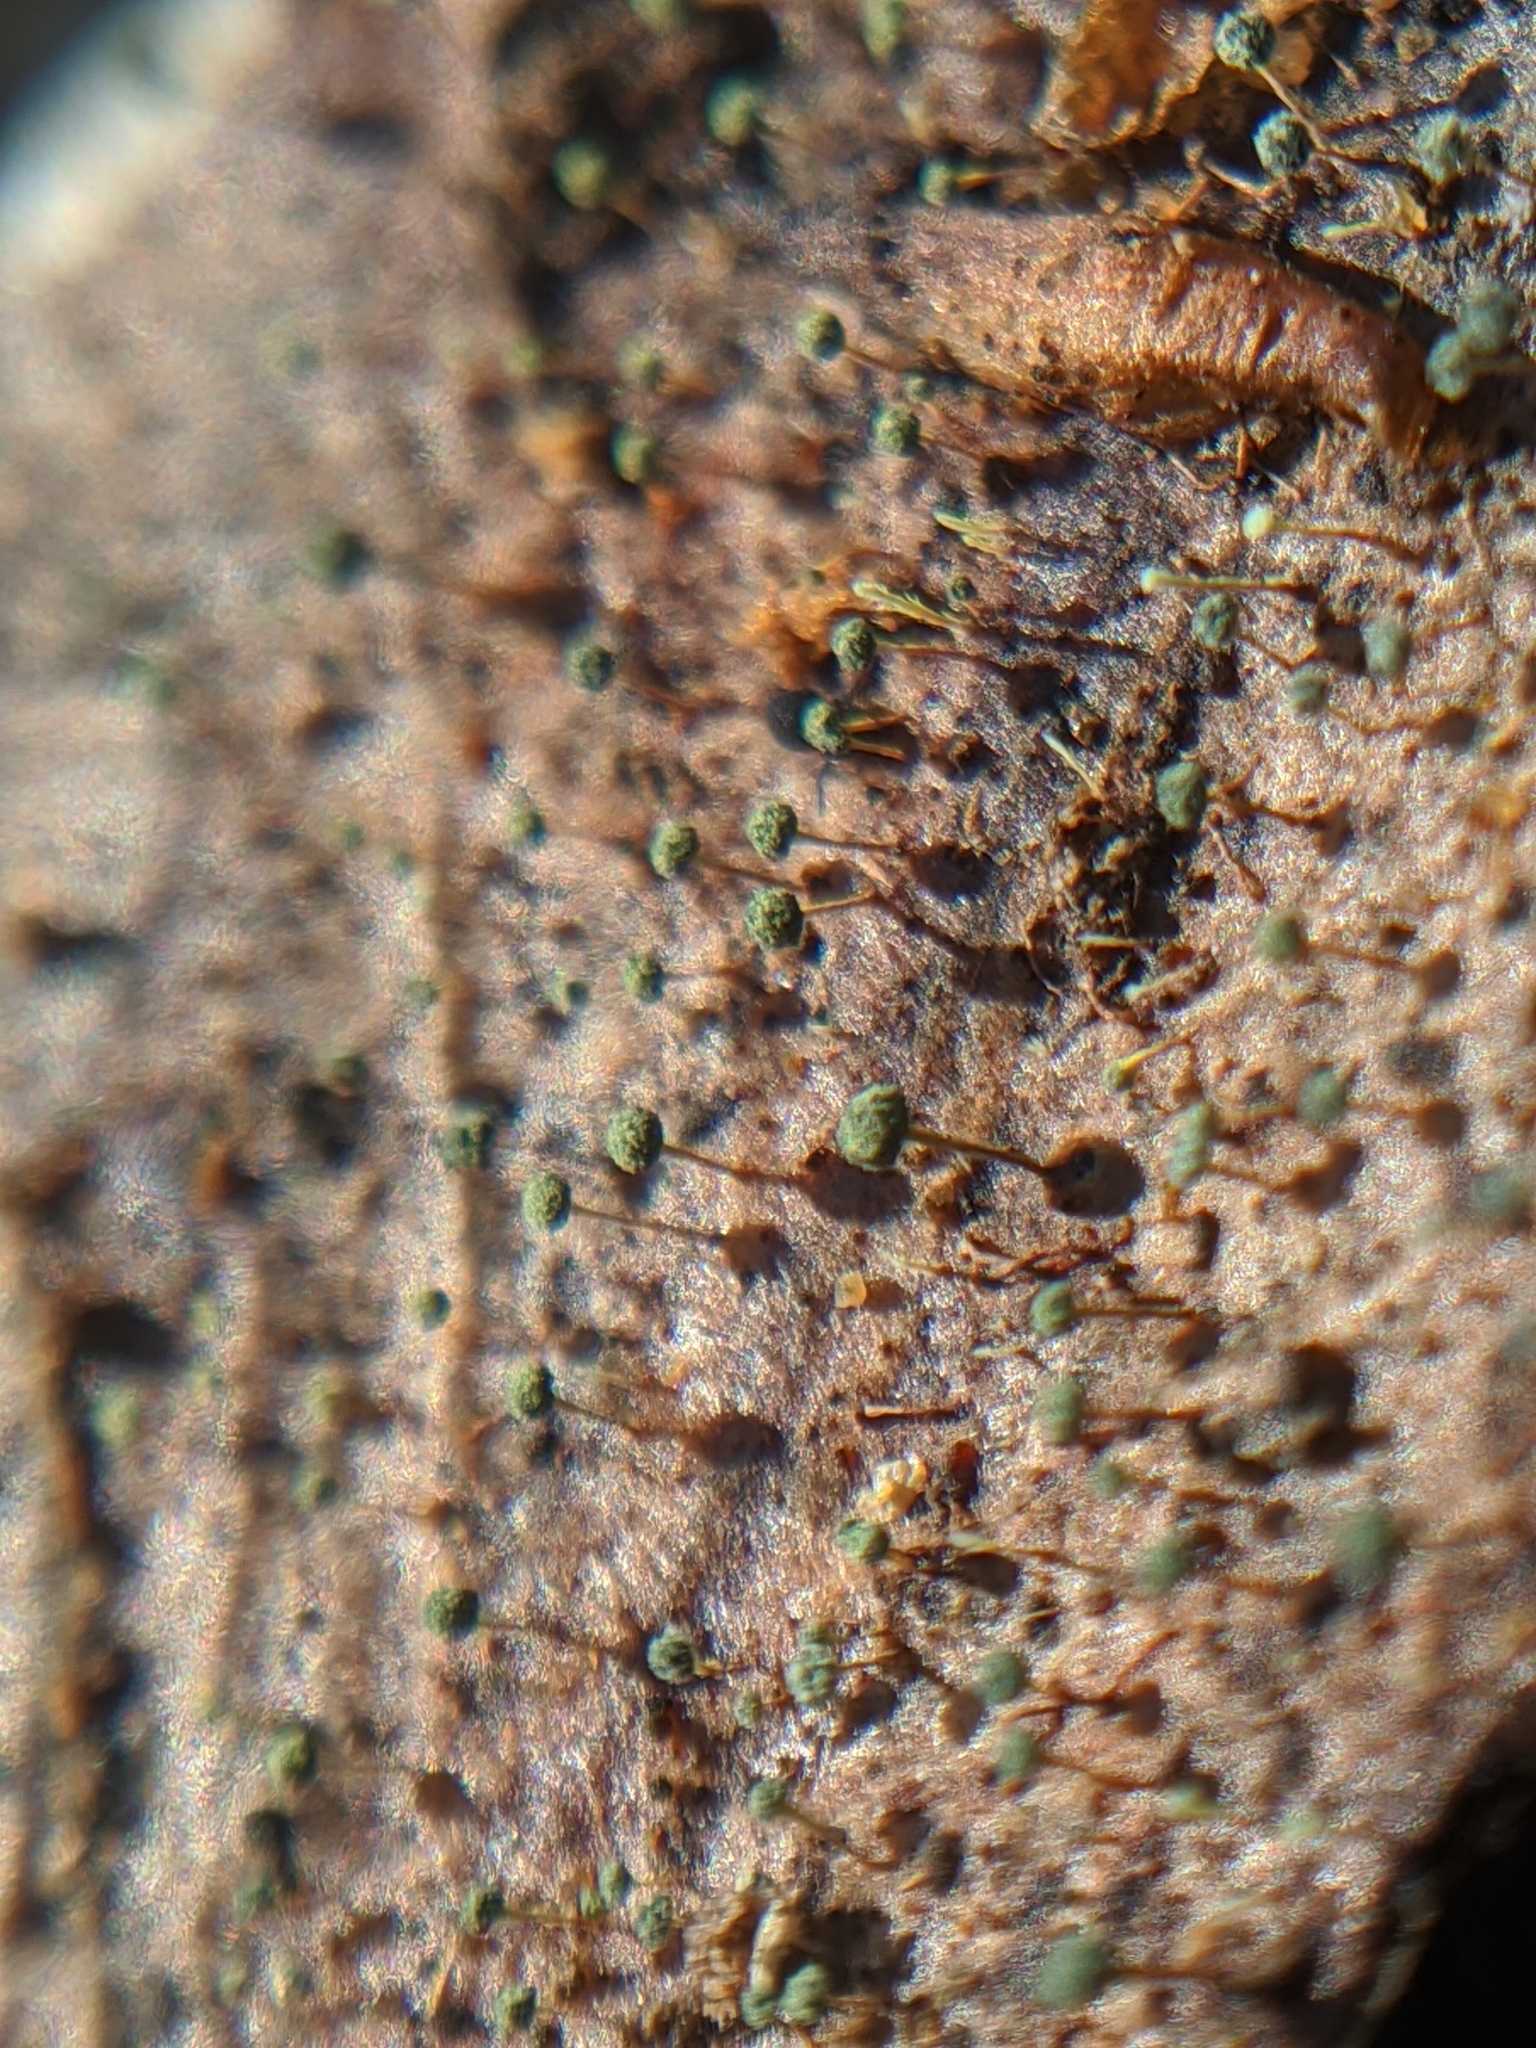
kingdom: Fungi
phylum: Ascomycota
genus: Mycosylva
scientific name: Mycosylva setosa
